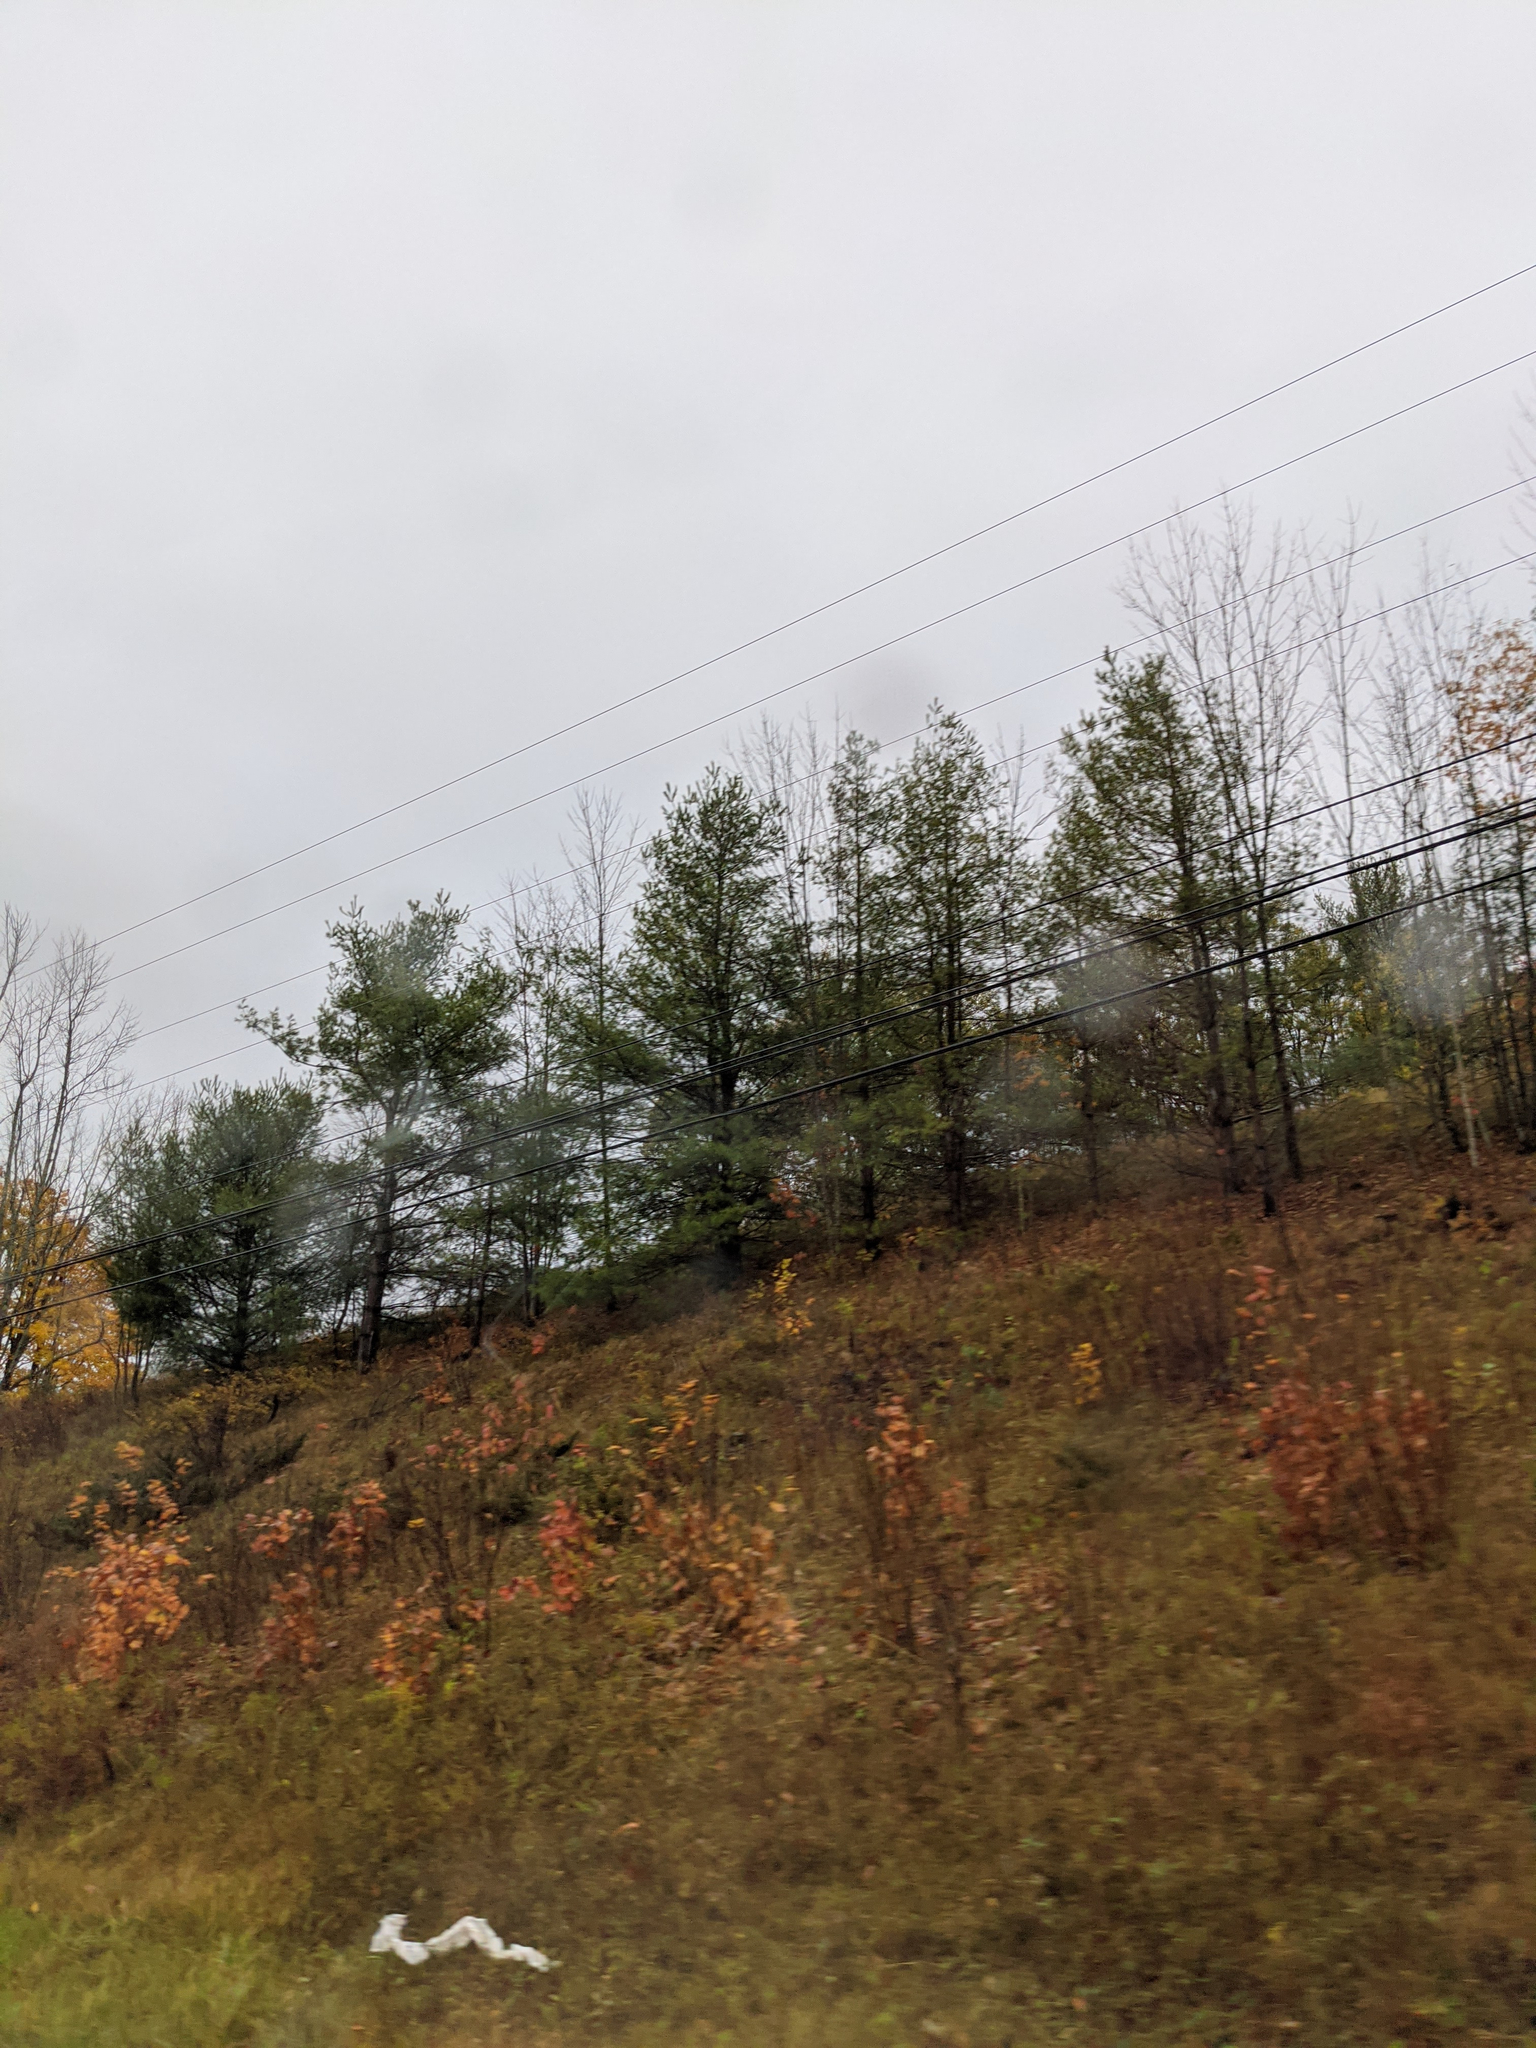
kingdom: Plantae
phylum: Tracheophyta
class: Pinopsida
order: Pinales
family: Pinaceae
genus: Pinus
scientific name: Pinus strobus
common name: Weymouth pine
